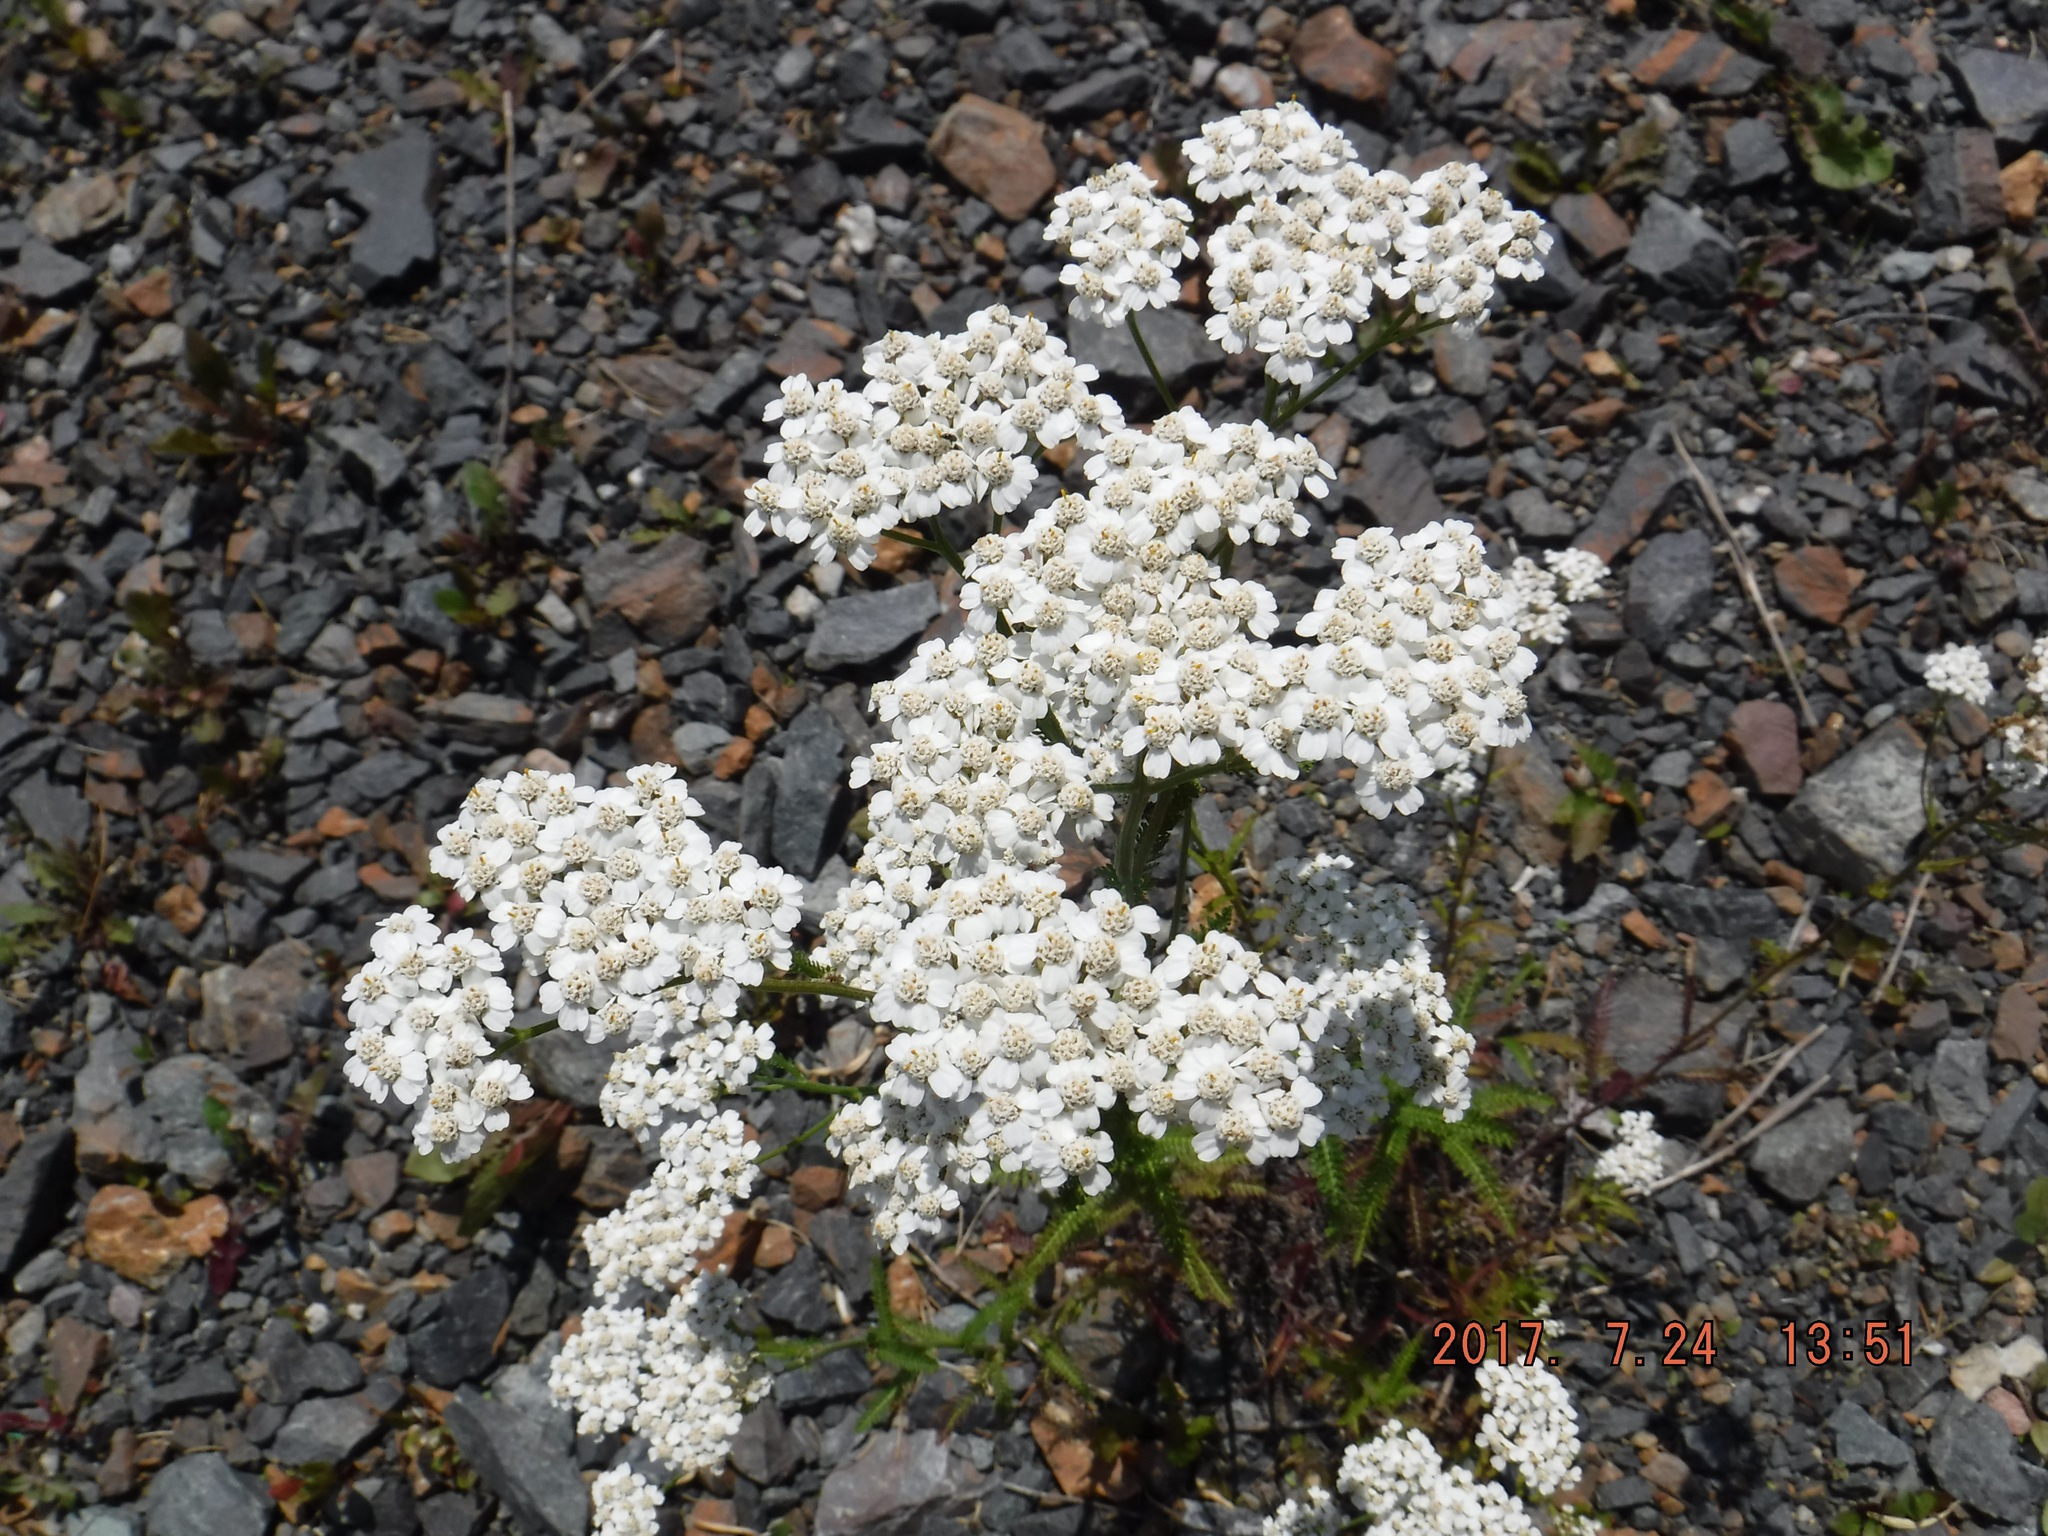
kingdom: Plantae
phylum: Tracheophyta
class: Magnoliopsida
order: Asterales
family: Asteraceae
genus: Achillea
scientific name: Achillea millefolium
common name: Yarrow
